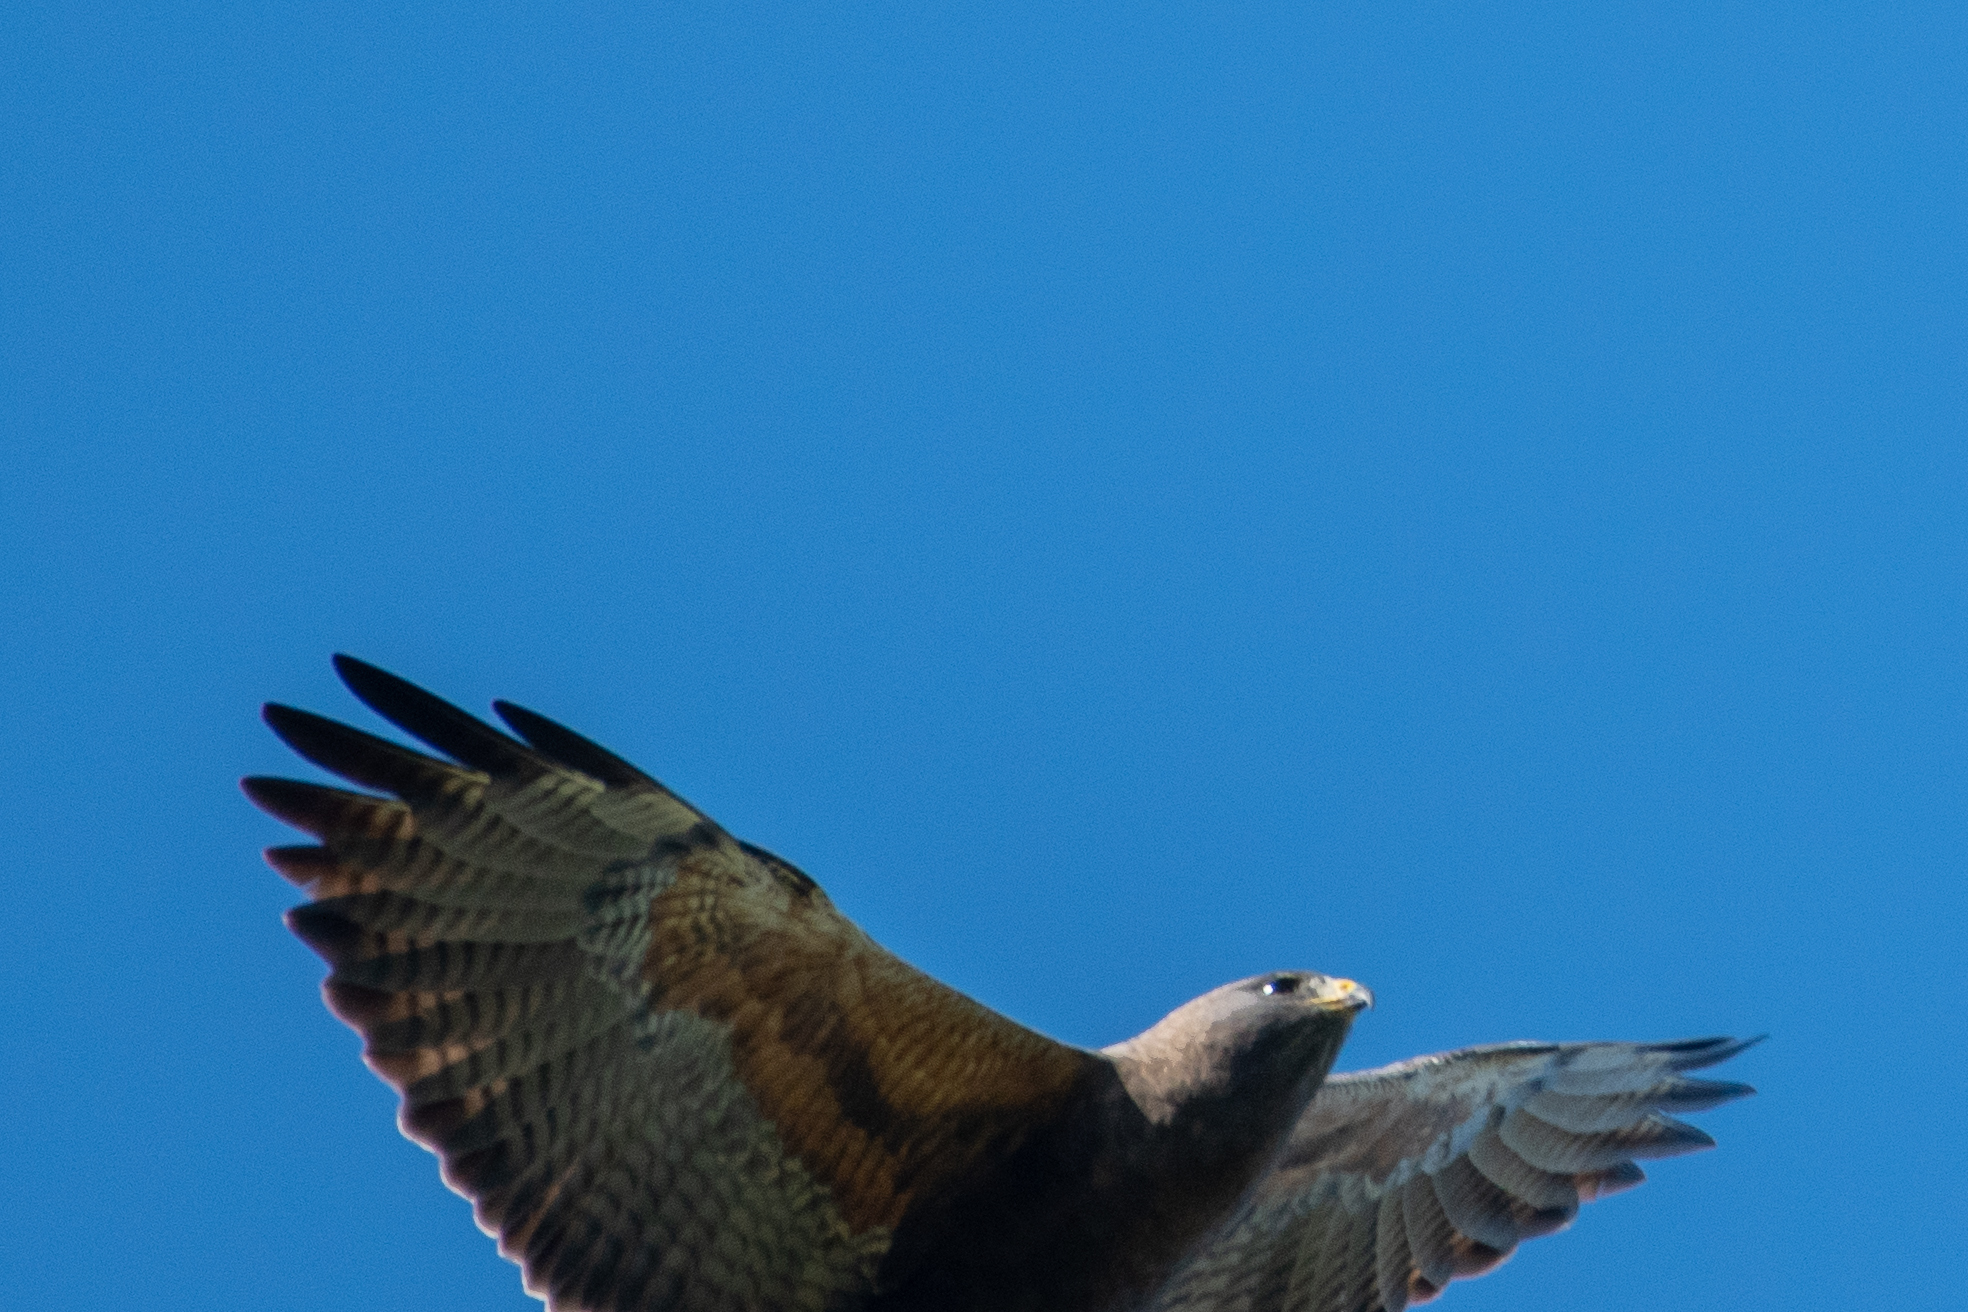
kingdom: Animalia
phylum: Chordata
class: Aves
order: Accipitriformes
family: Accipitridae
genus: Buteo
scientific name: Buteo swainsoni
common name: Swainson's hawk
